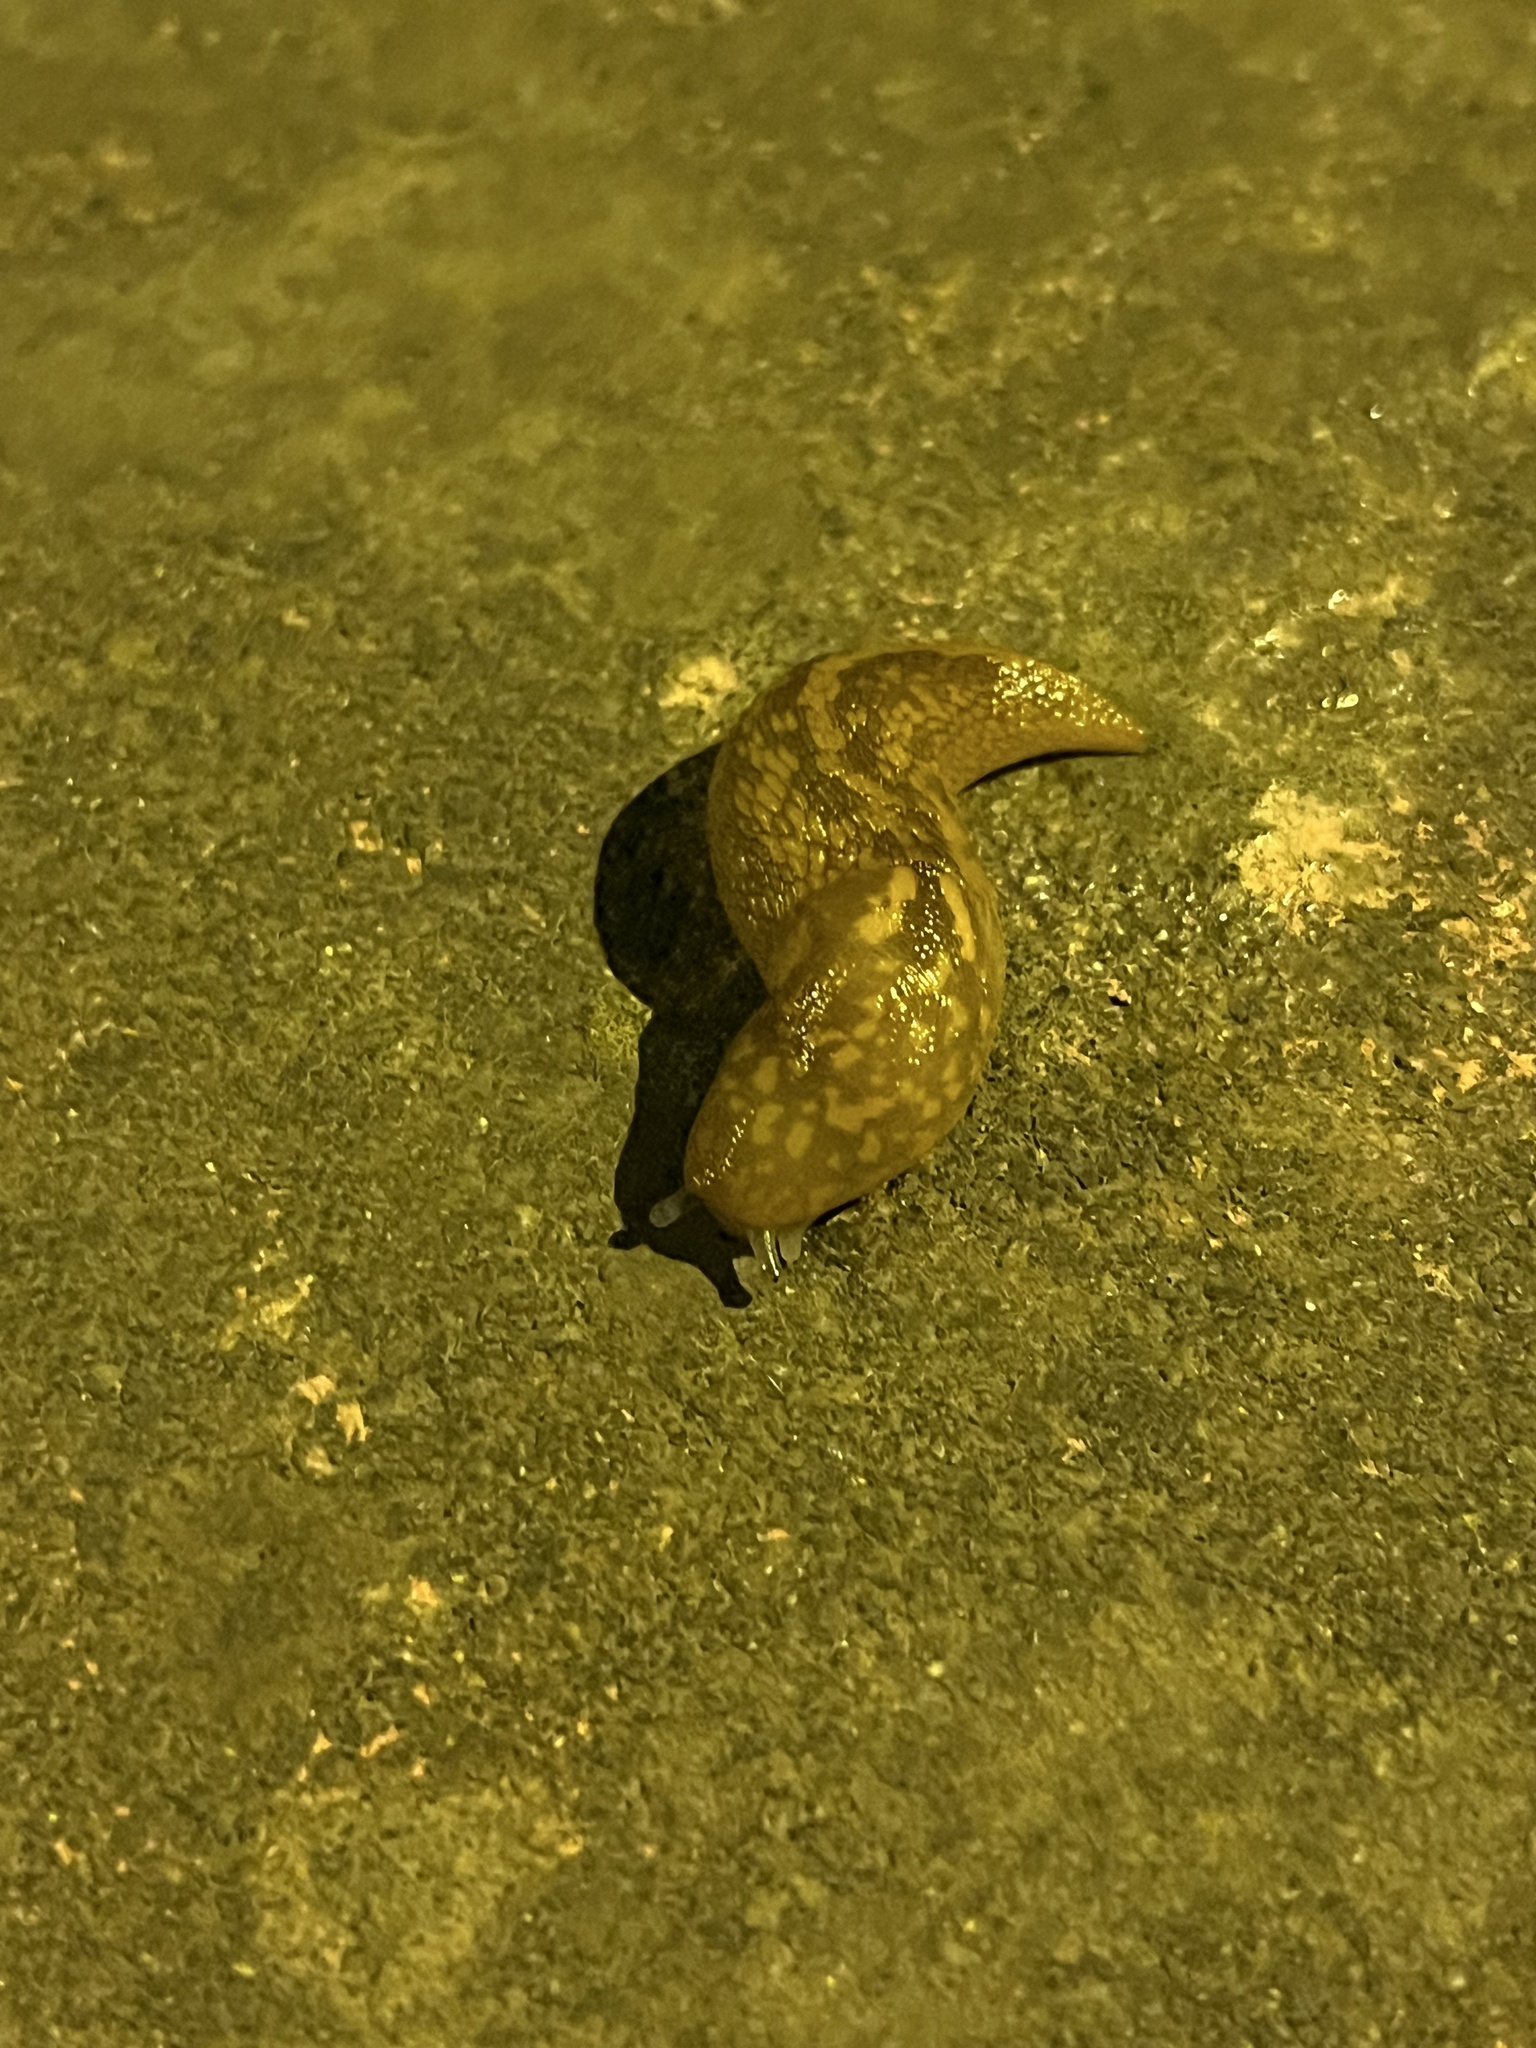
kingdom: Animalia
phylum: Mollusca
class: Gastropoda
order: Stylommatophora
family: Limacidae
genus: Limacus
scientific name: Limacus flavus
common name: Yellow gardenslug
